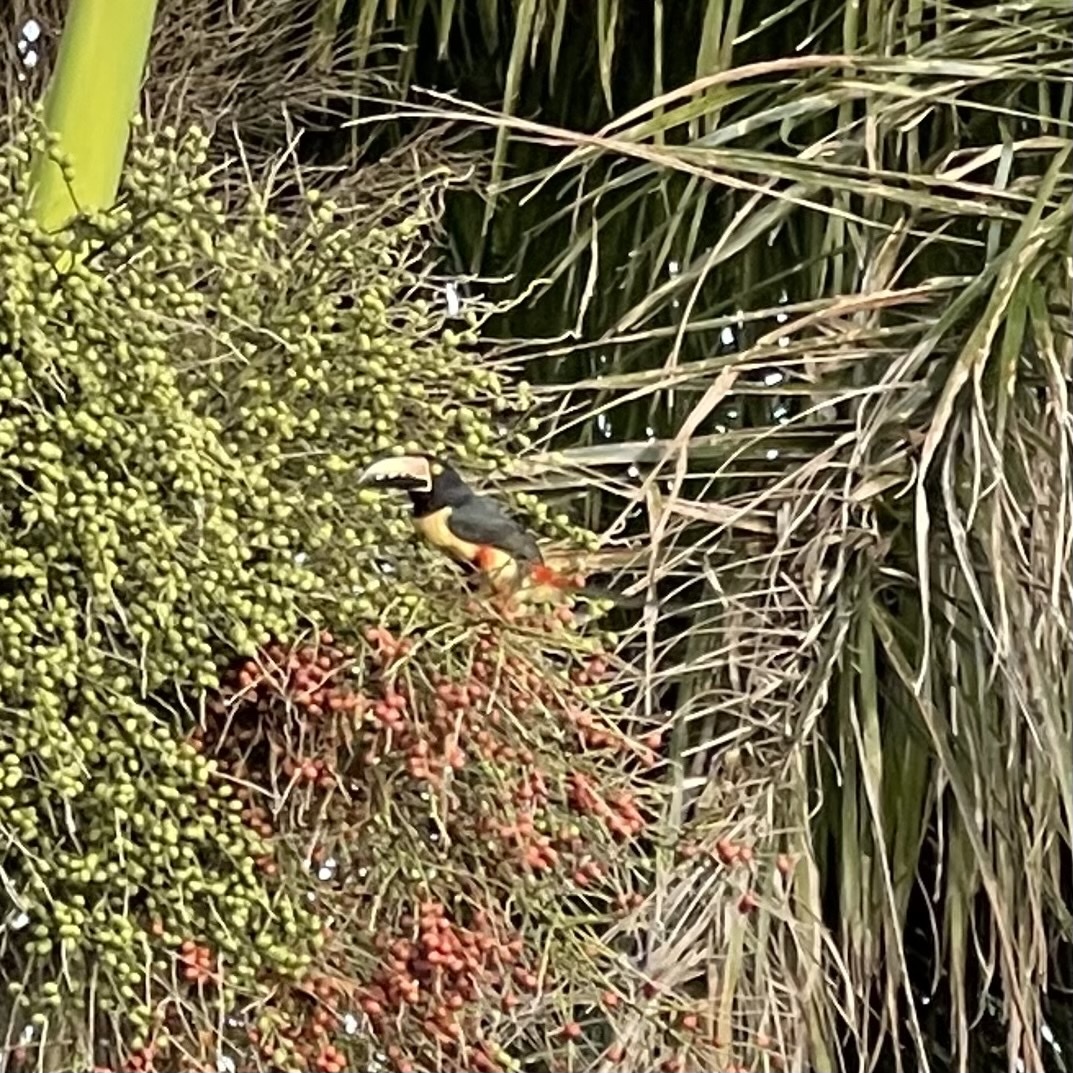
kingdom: Animalia
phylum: Chordata
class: Aves
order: Piciformes
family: Ramphastidae
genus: Pteroglossus
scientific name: Pteroglossus torquatus
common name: Collared aracari
